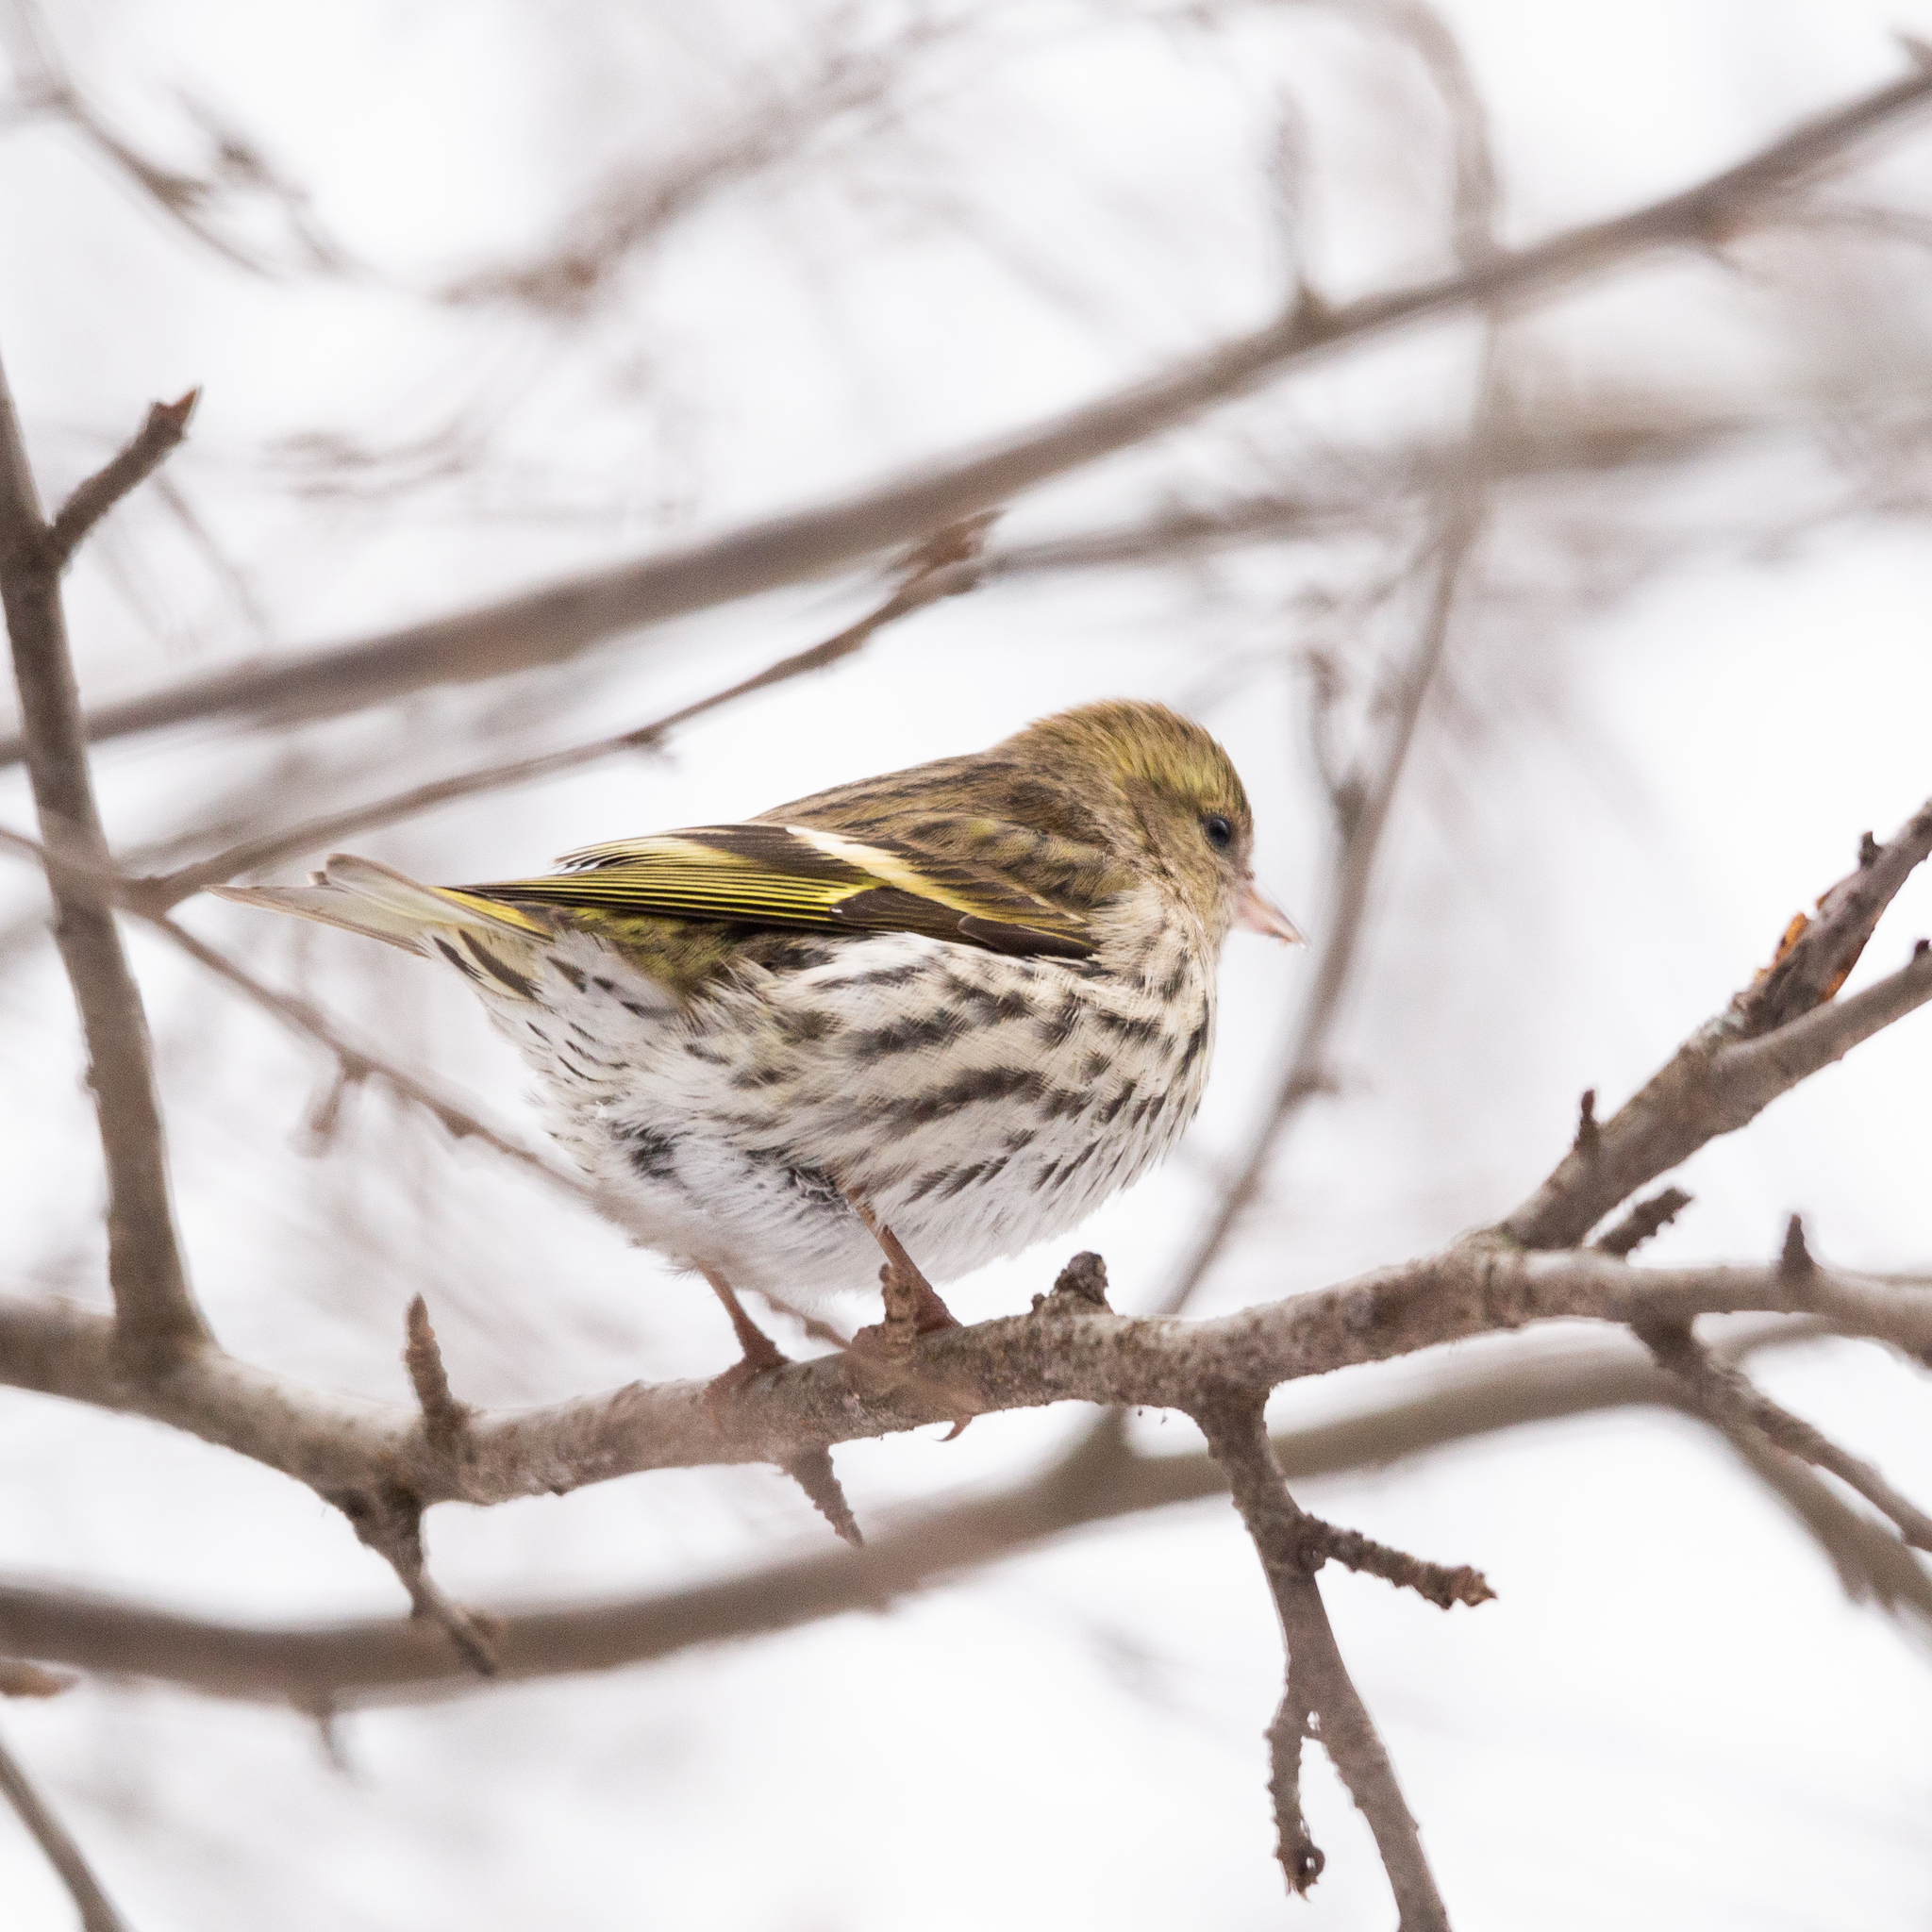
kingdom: Animalia
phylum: Chordata
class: Aves
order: Passeriformes
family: Fringillidae
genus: Spinus
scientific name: Spinus spinus
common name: Eurasian siskin
